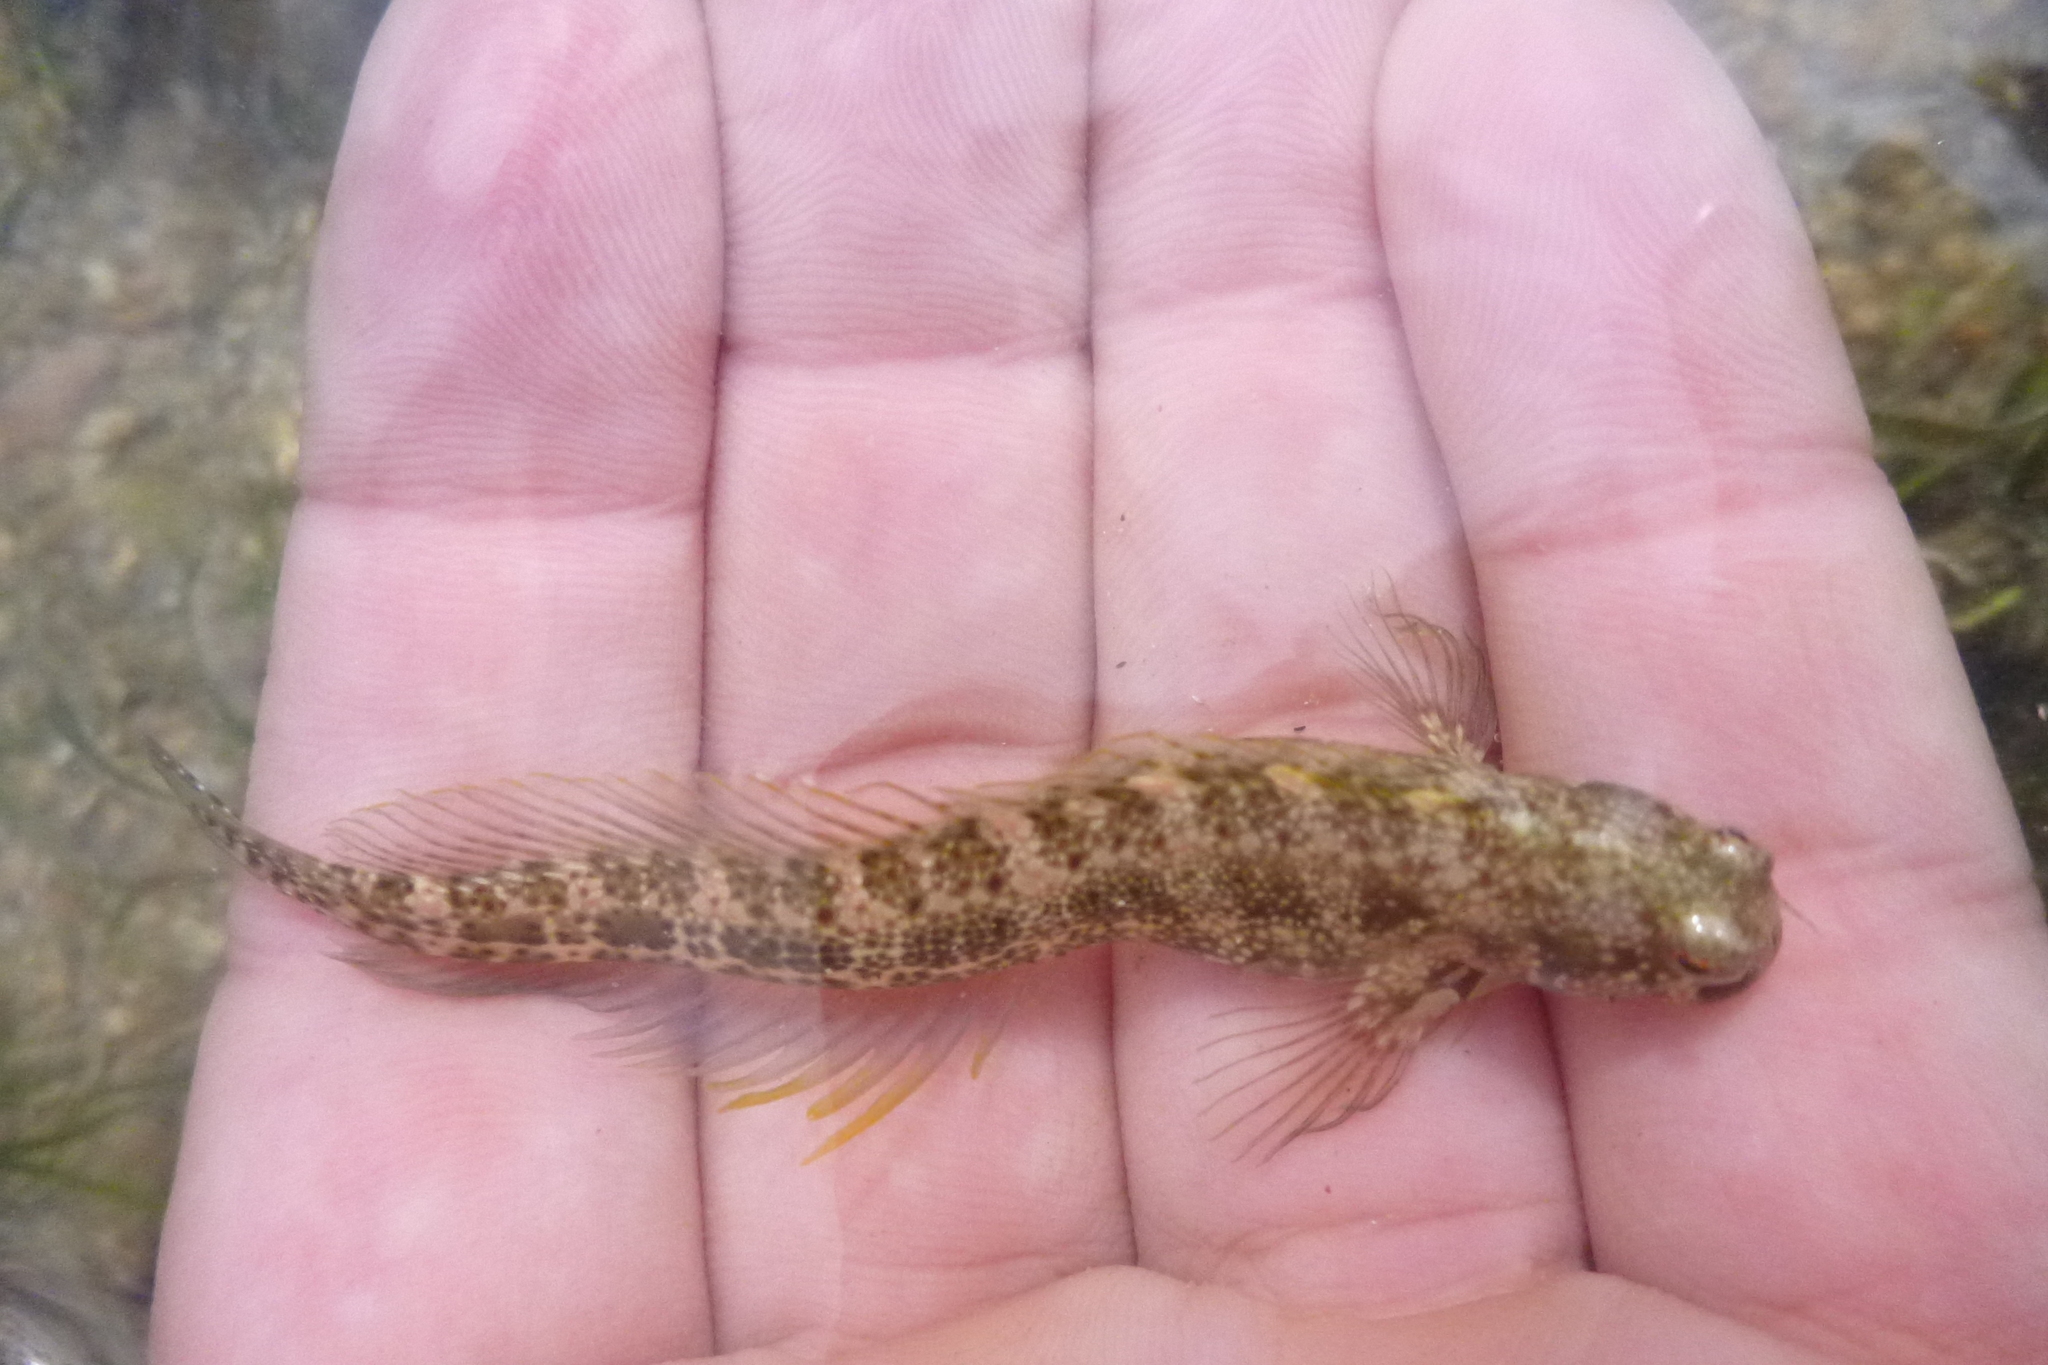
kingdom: Animalia
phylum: Chordata
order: Perciformes
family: Blenniidae
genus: Salarias
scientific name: Salarias guttatus
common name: Breast-spot blenny
